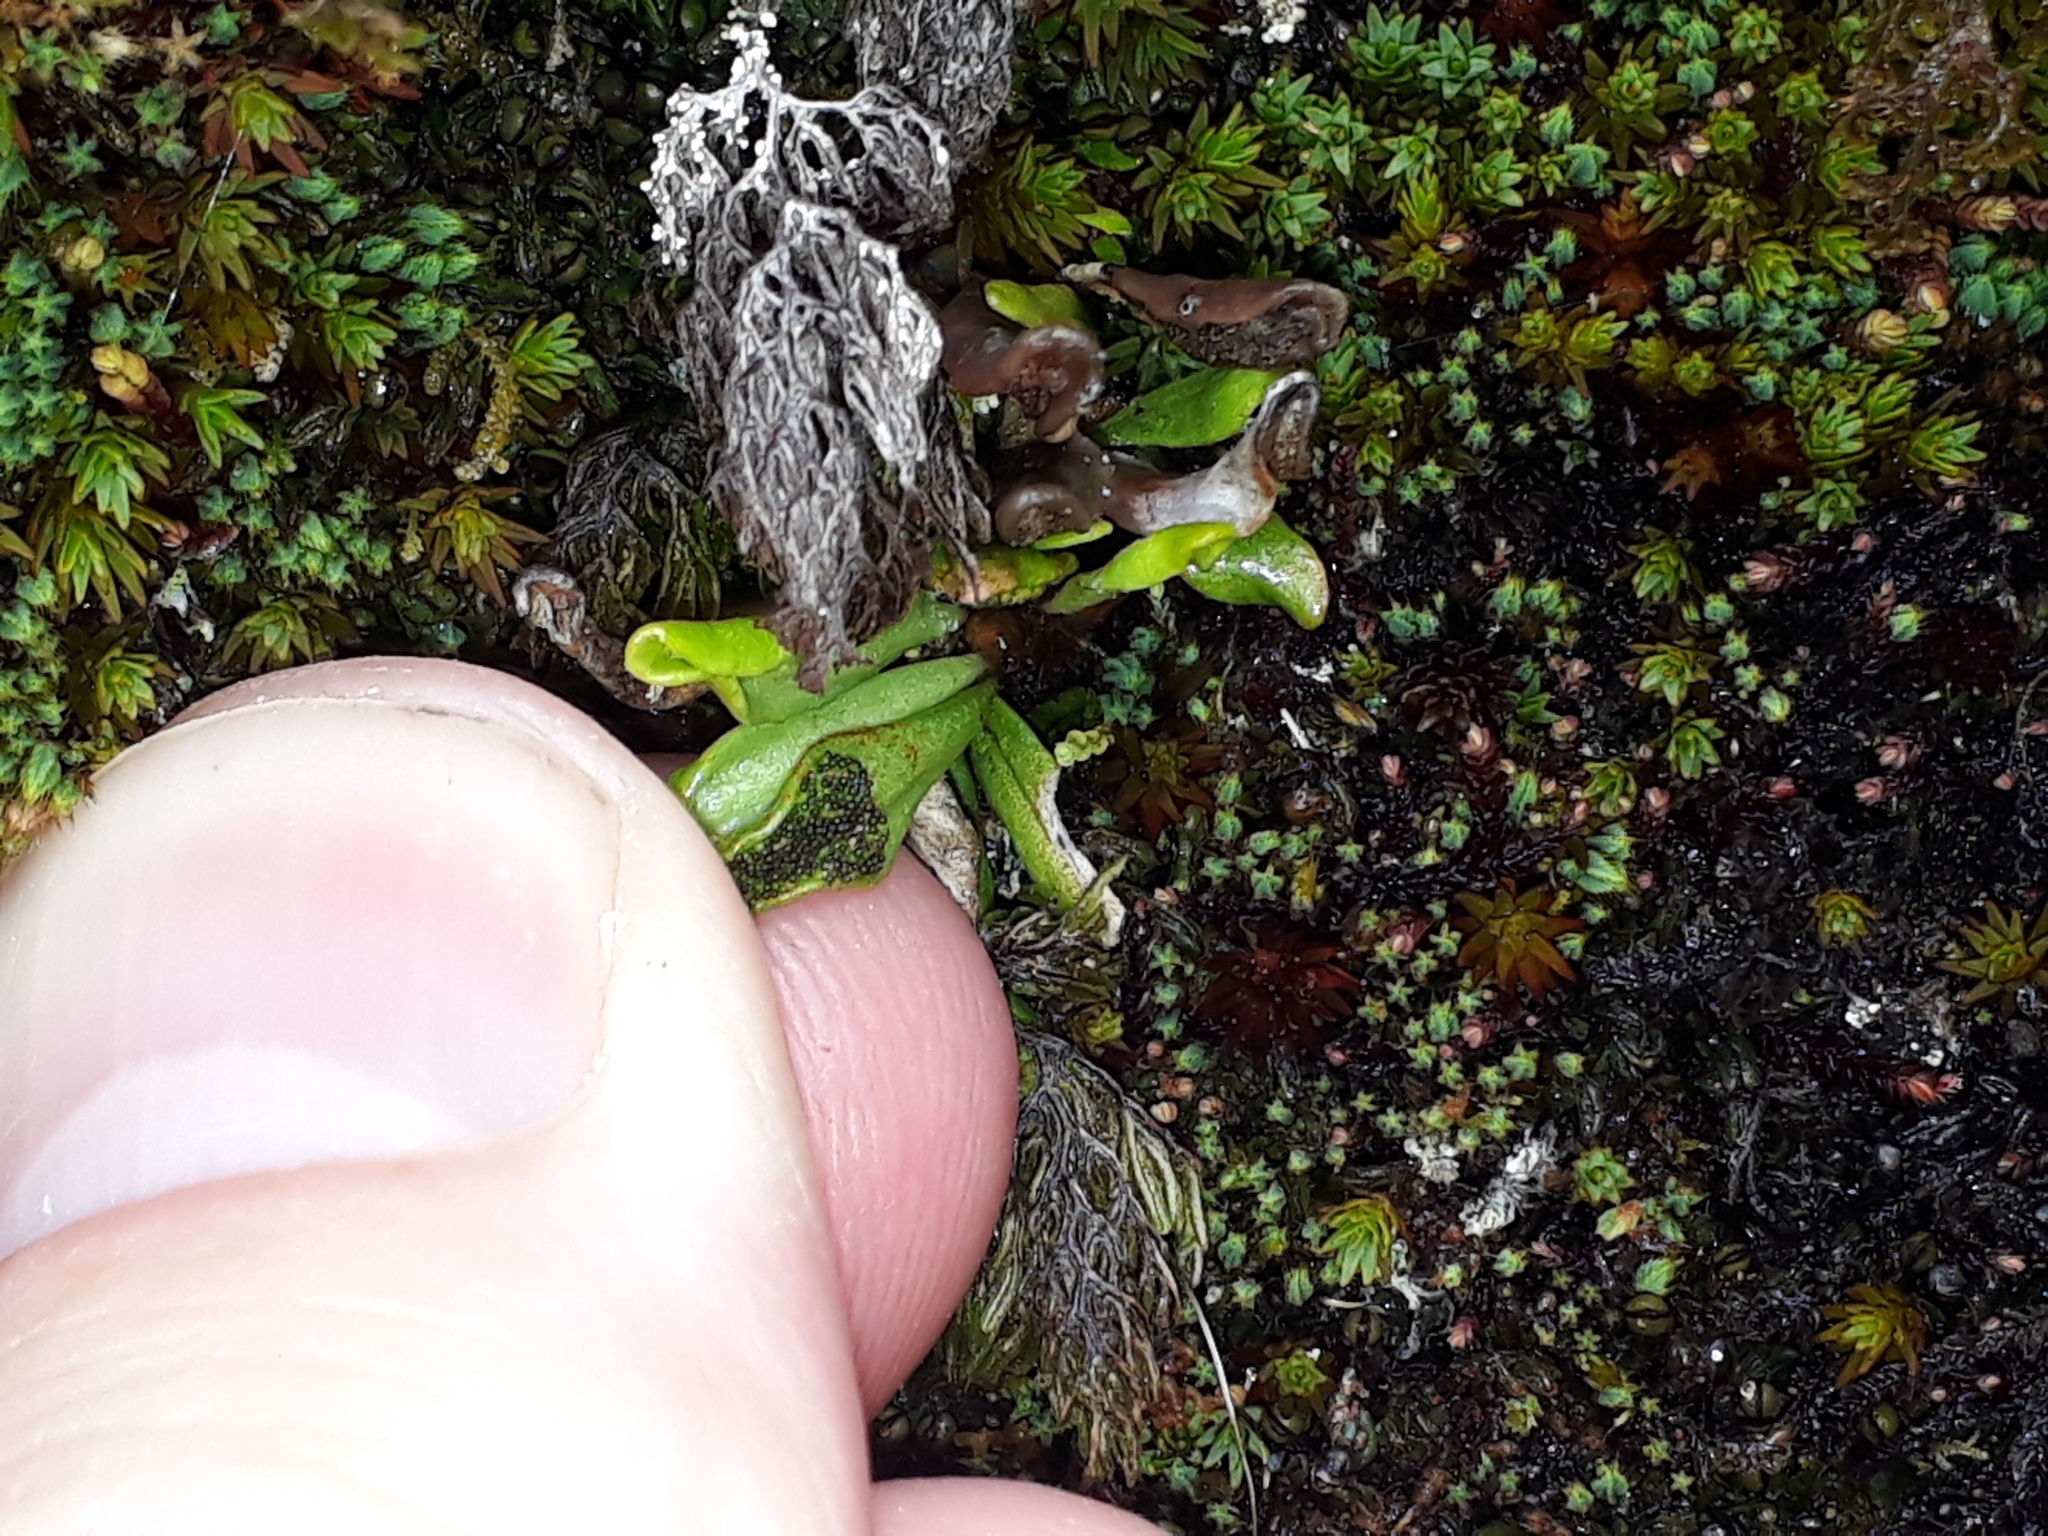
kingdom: Plantae
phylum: Tracheophyta
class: Polypodiopsida
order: Polypodiales
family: Polypodiaceae
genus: Notogrammitis
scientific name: Notogrammitis crassior
